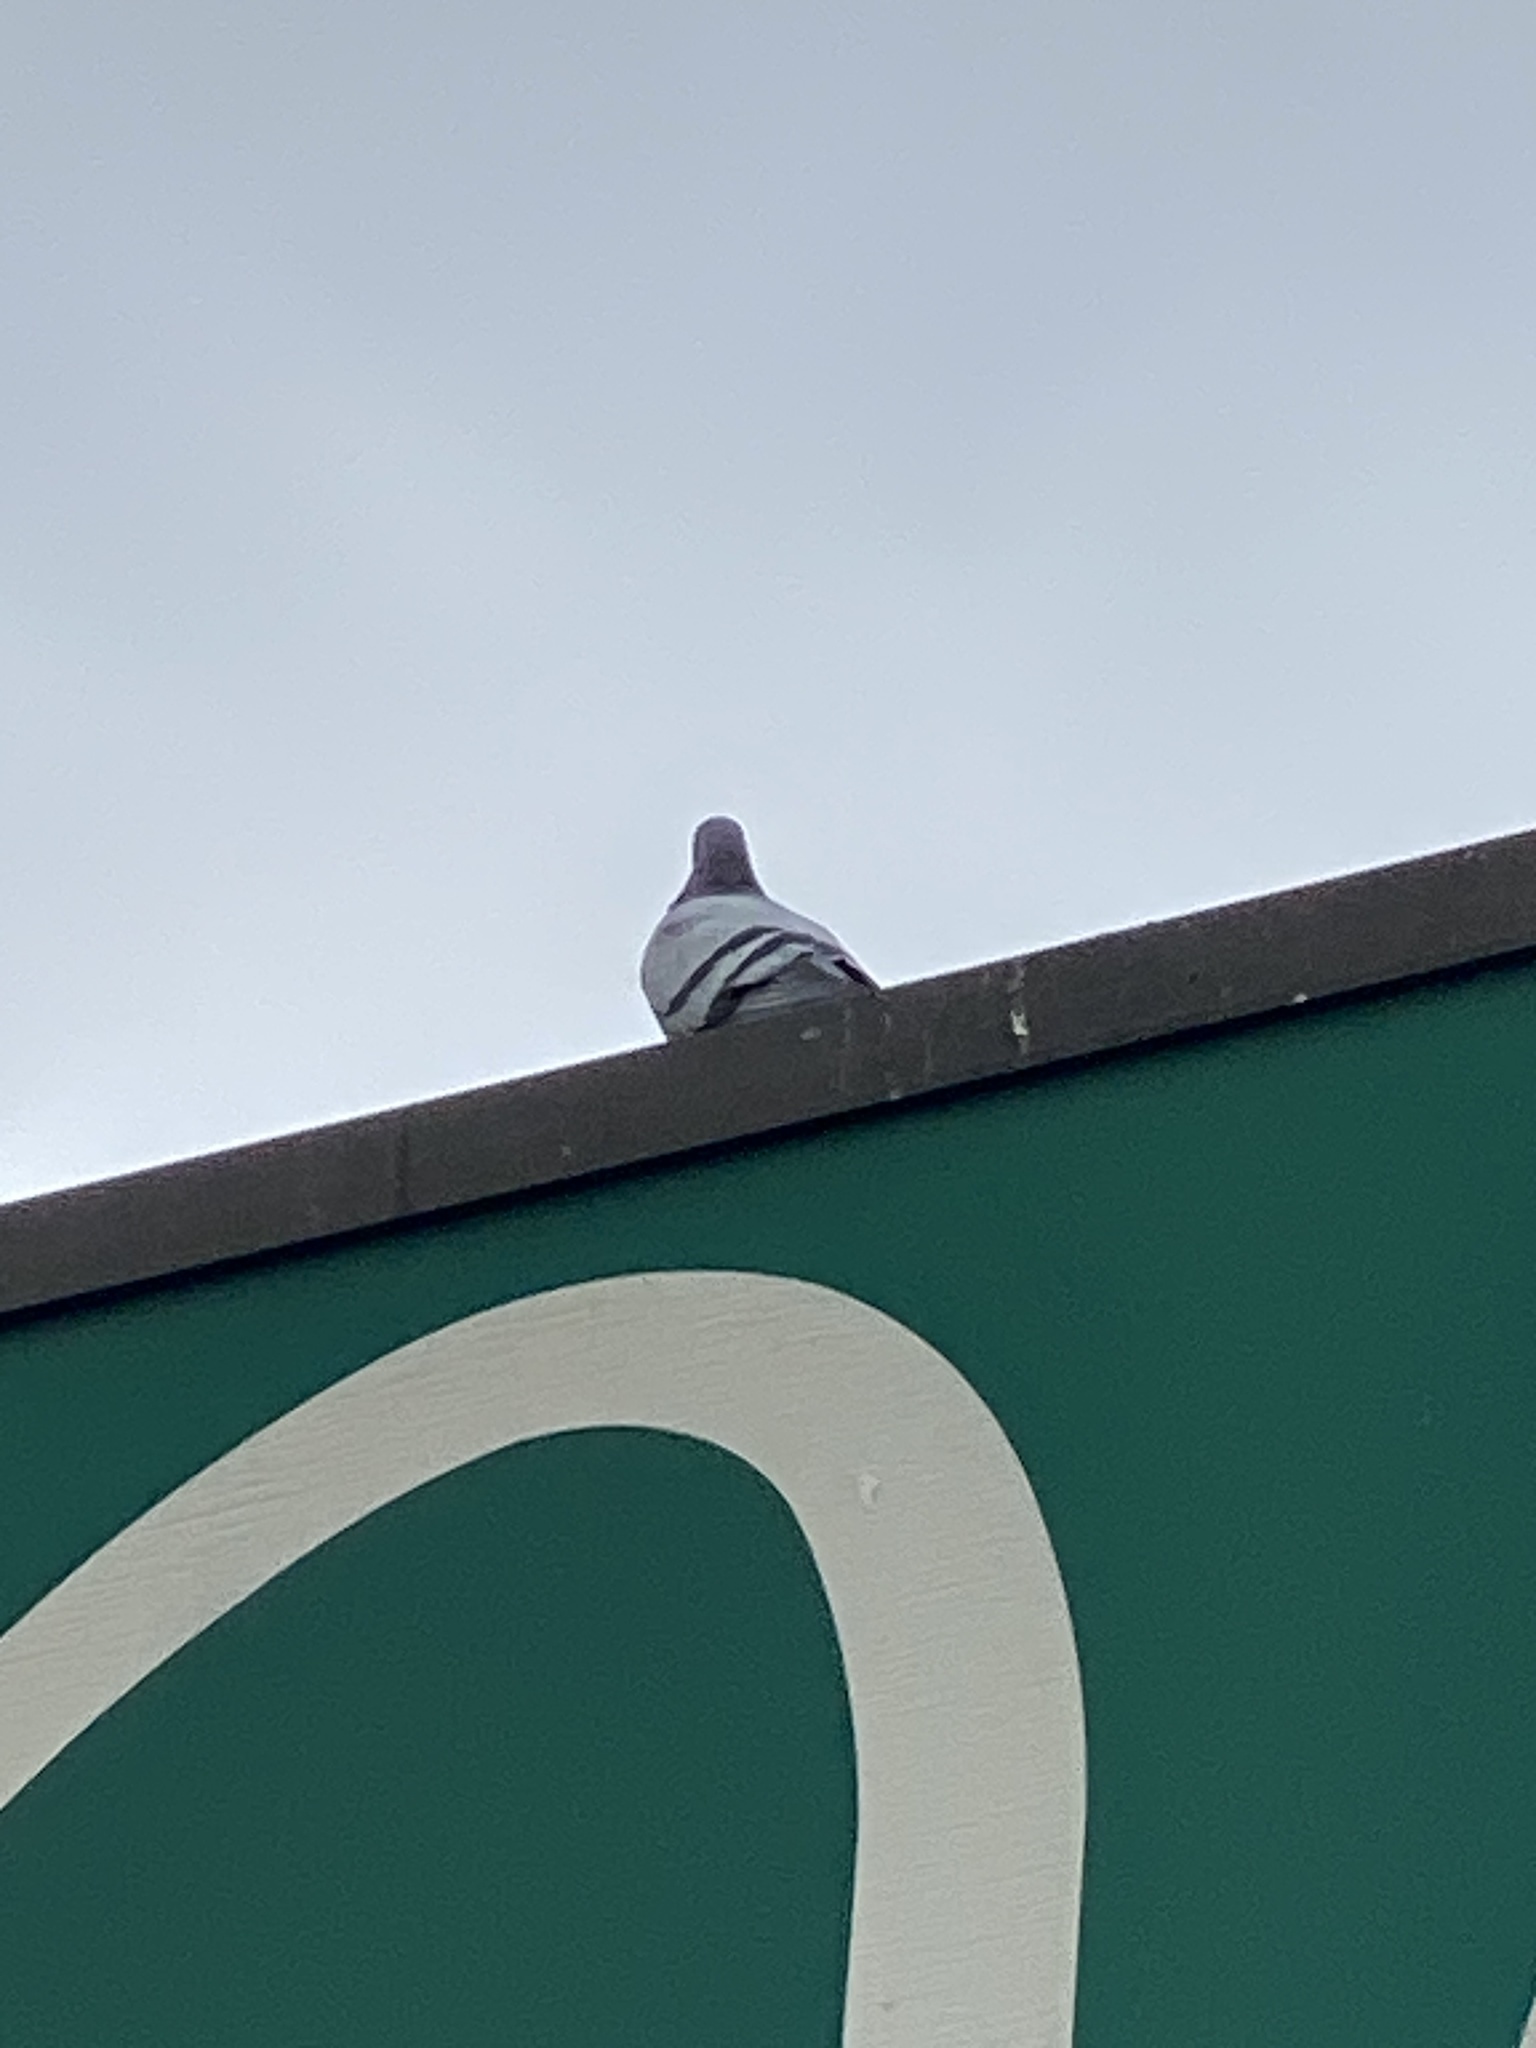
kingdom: Animalia
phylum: Chordata
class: Aves
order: Columbiformes
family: Columbidae
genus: Columba
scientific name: Columba livia
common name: Rock pigeon
